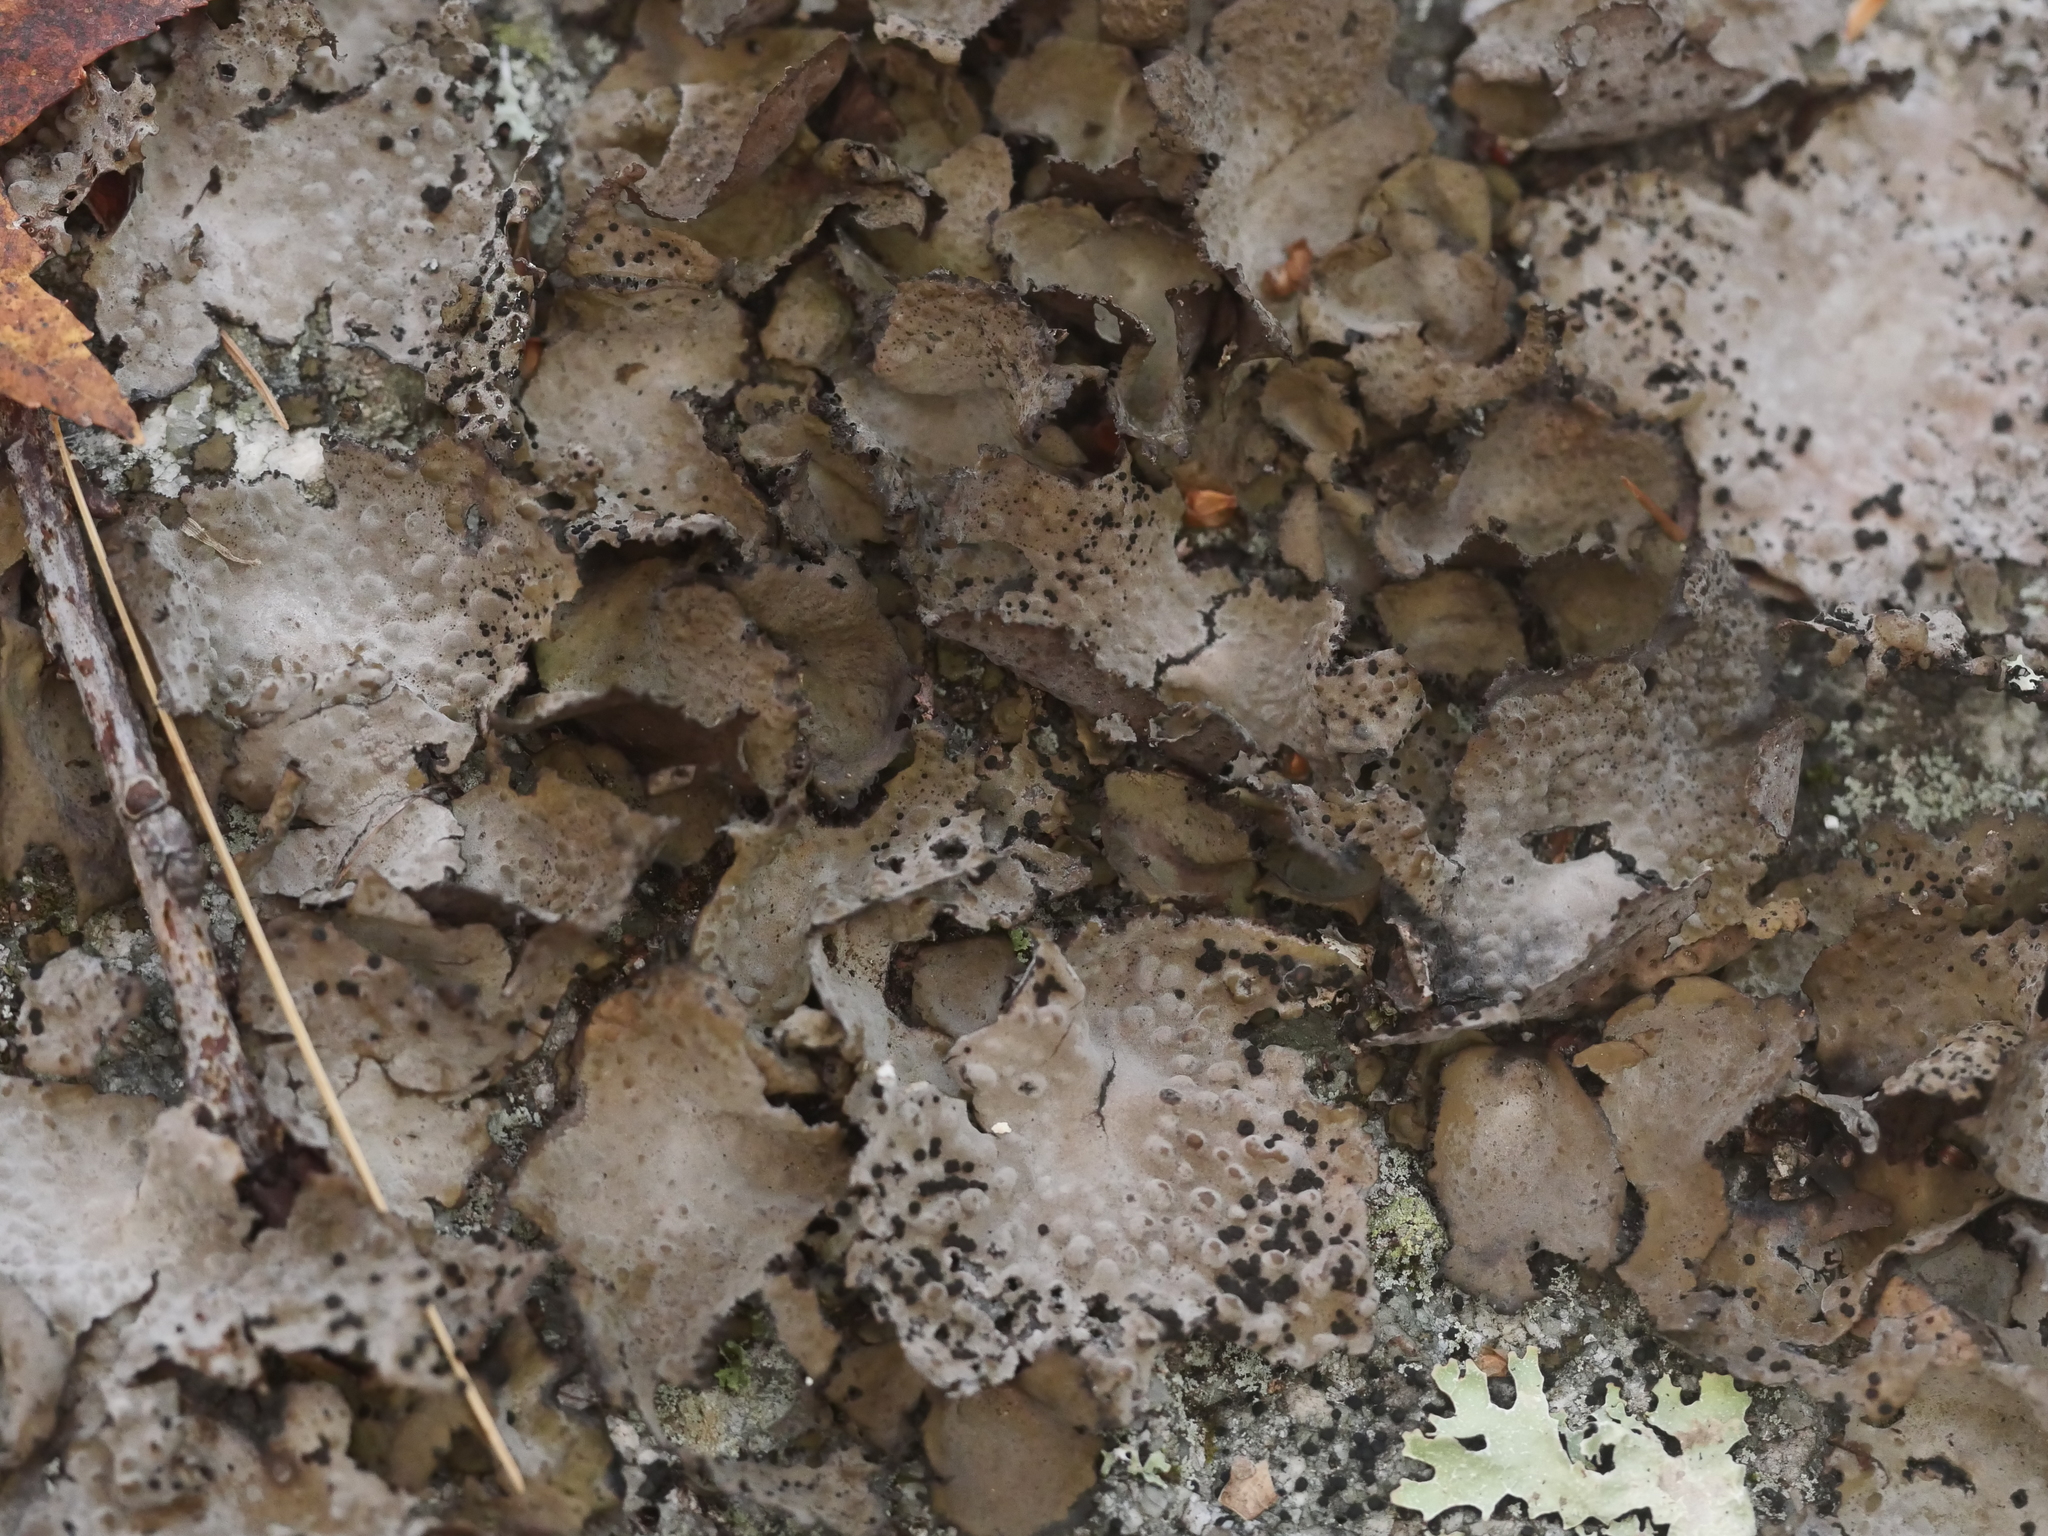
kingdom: Fungi
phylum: Ascomycota
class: Lecanoromycetes
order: Umbilicariales
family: Umbilicariaceae
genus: Lasallia
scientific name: Lasallia papulosa
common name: Common toadskin lichen
